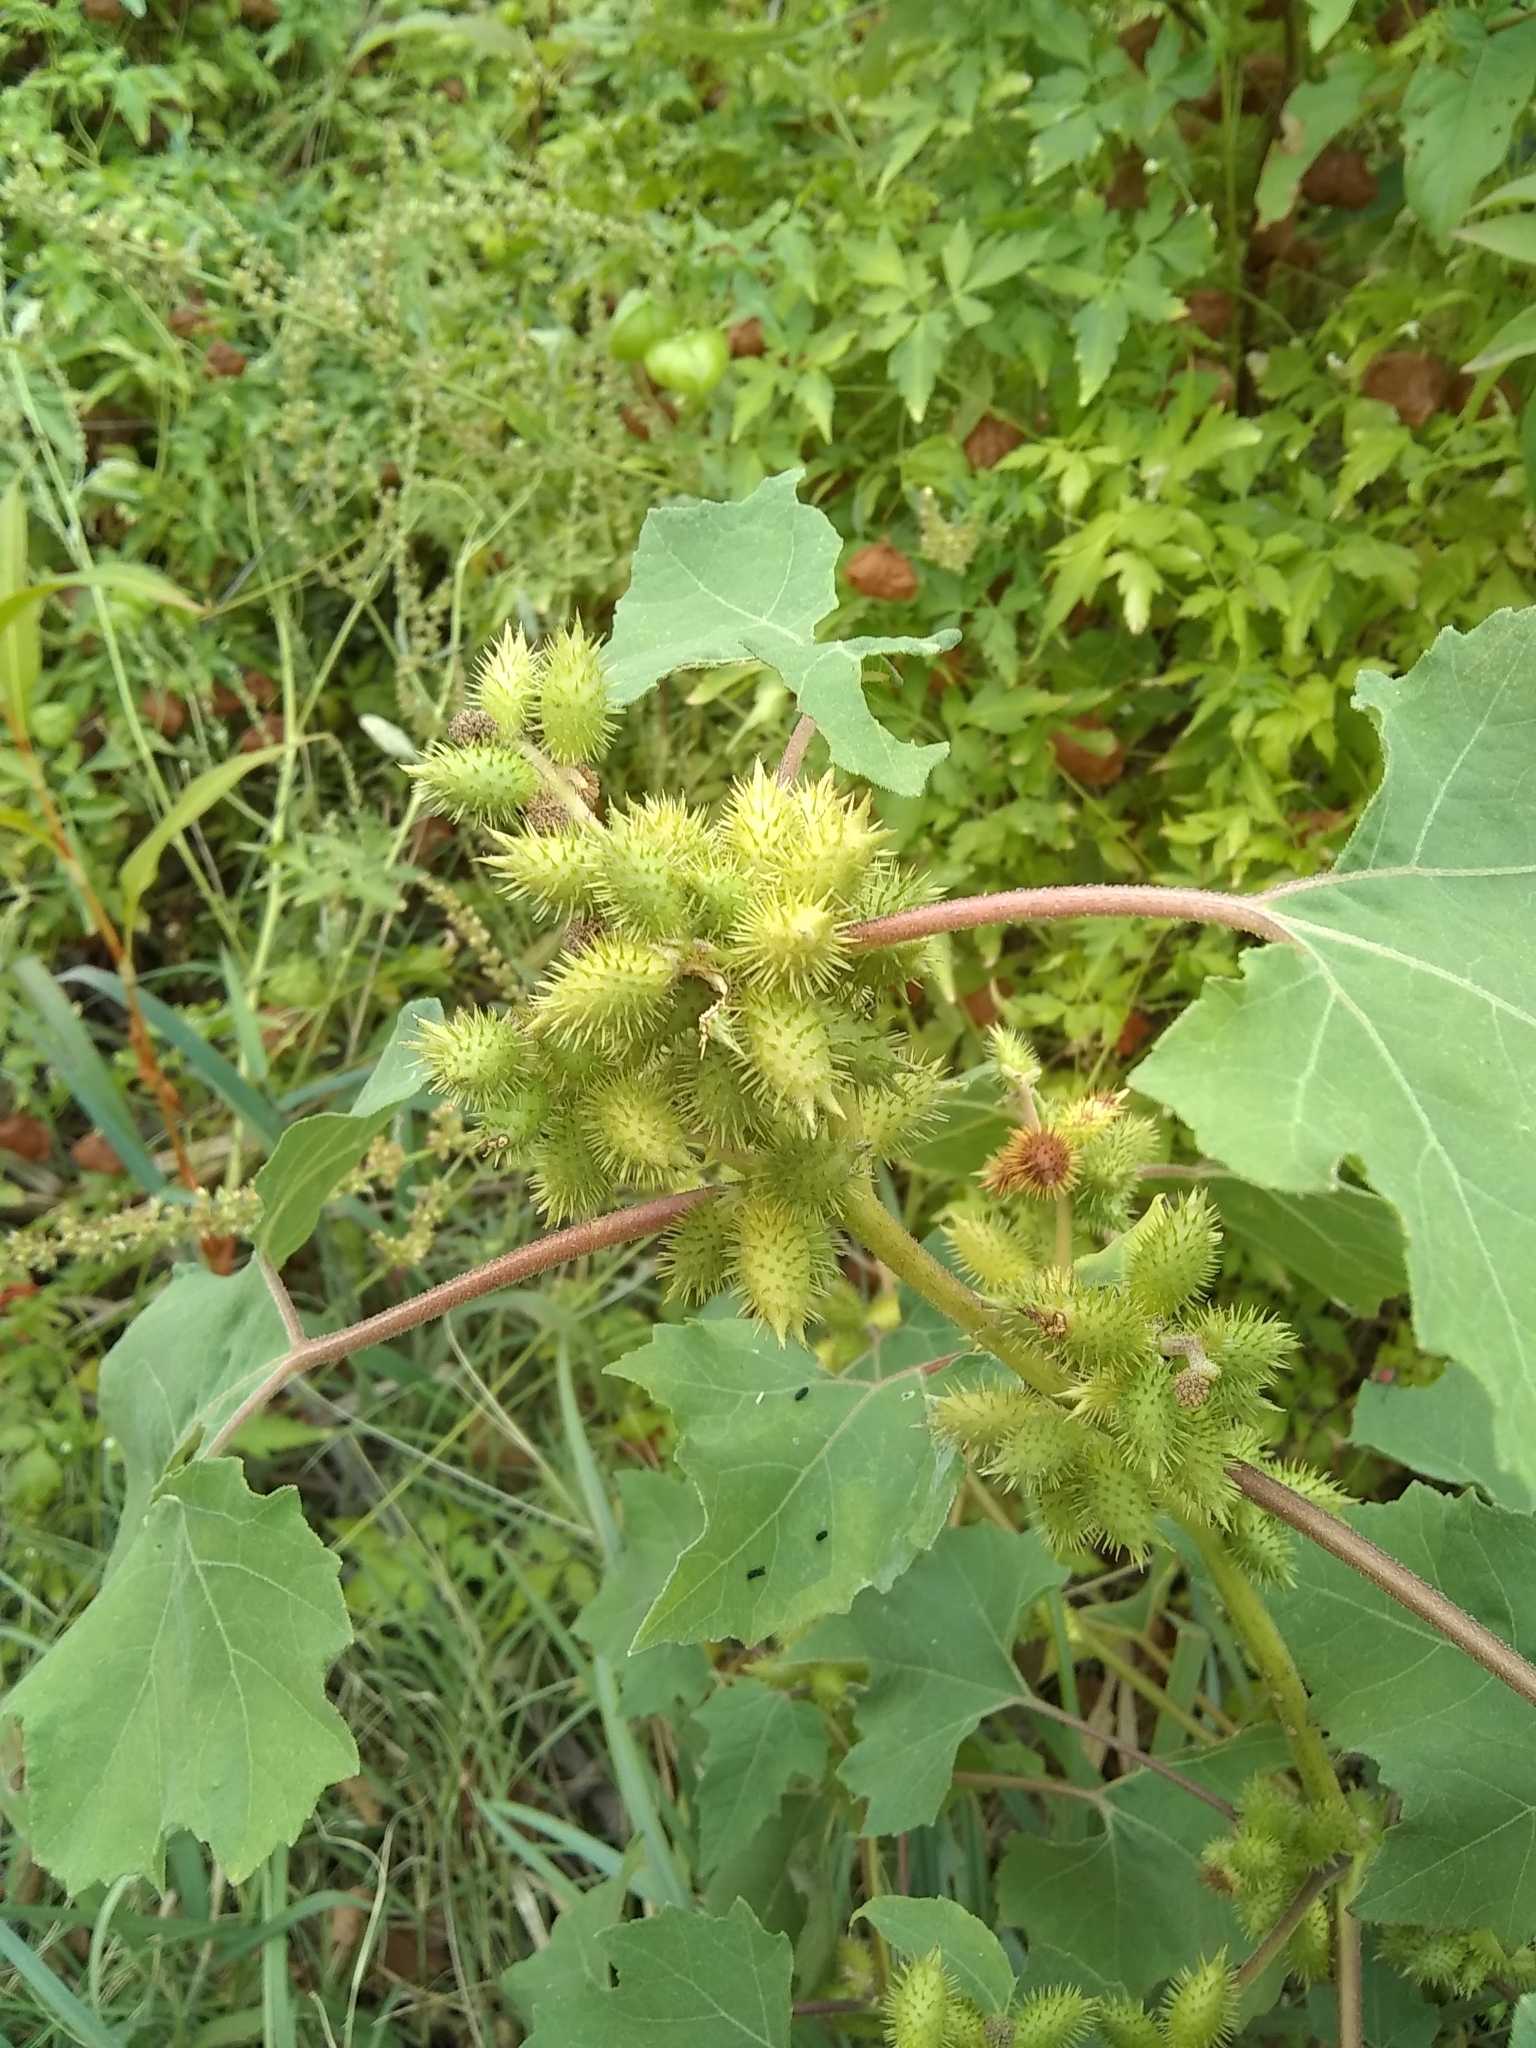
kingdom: Plantae
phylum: Tracheophyta
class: Magnoliopsida
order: Asterales
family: Asteraceae
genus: Xanthium
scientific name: Xanthium strumarium
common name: Rough cocklebur
